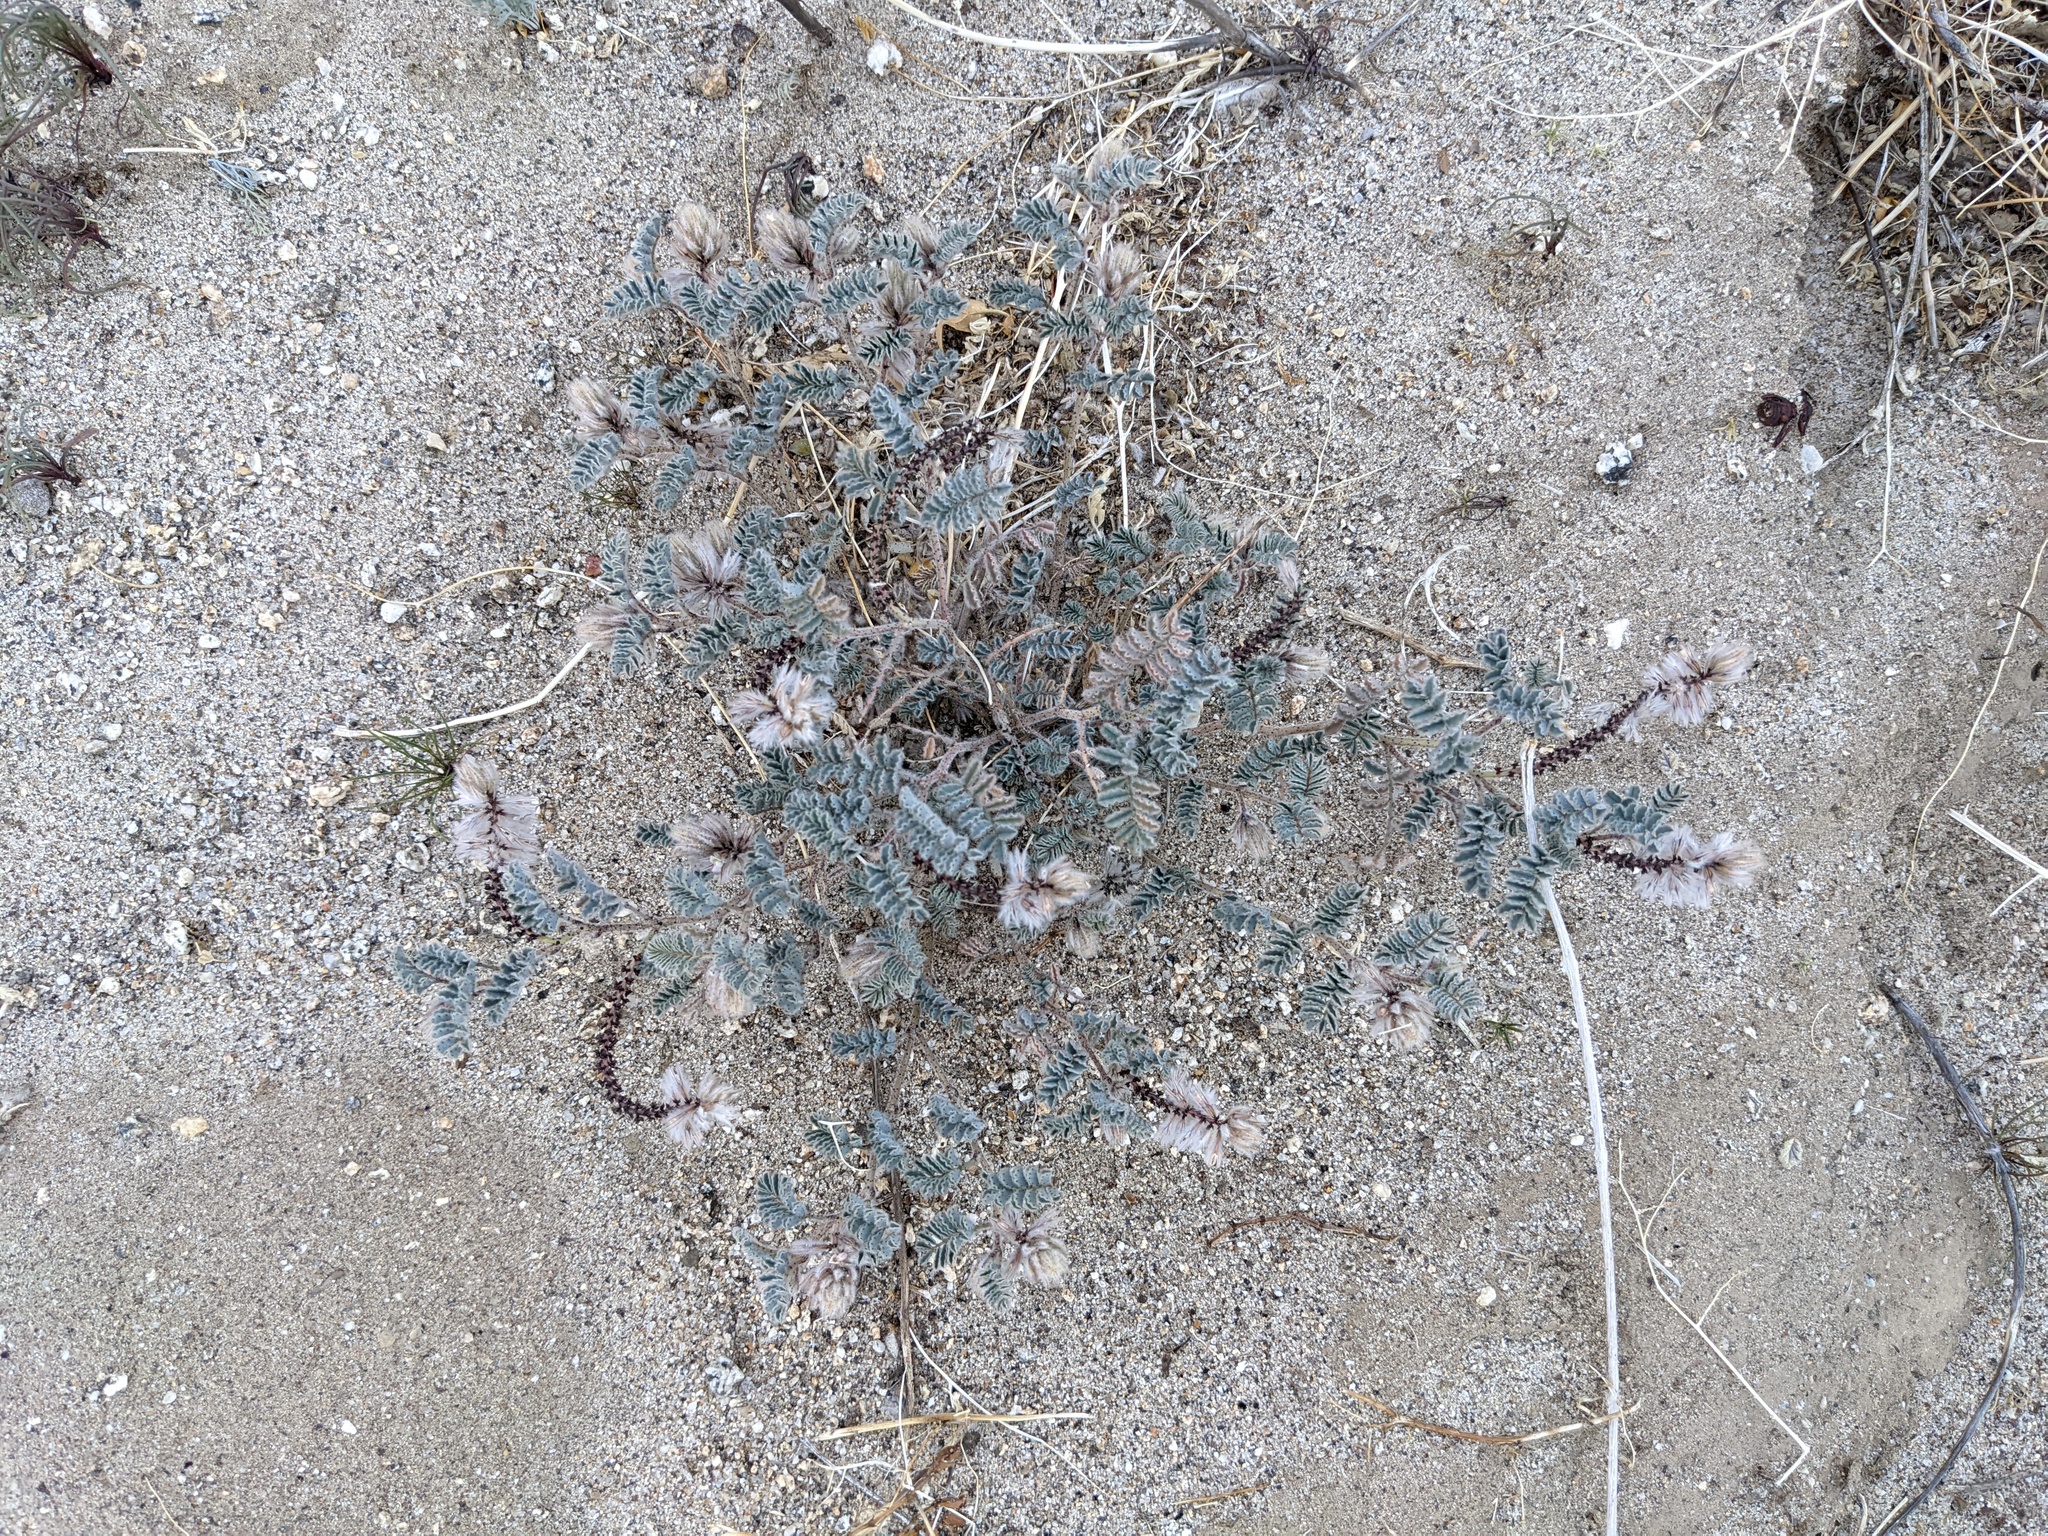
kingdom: Plantae
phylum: Tracheophyta
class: Magnoliopsida
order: Fabales
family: Fabaceae
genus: Dalea
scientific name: Dalea mollissima
